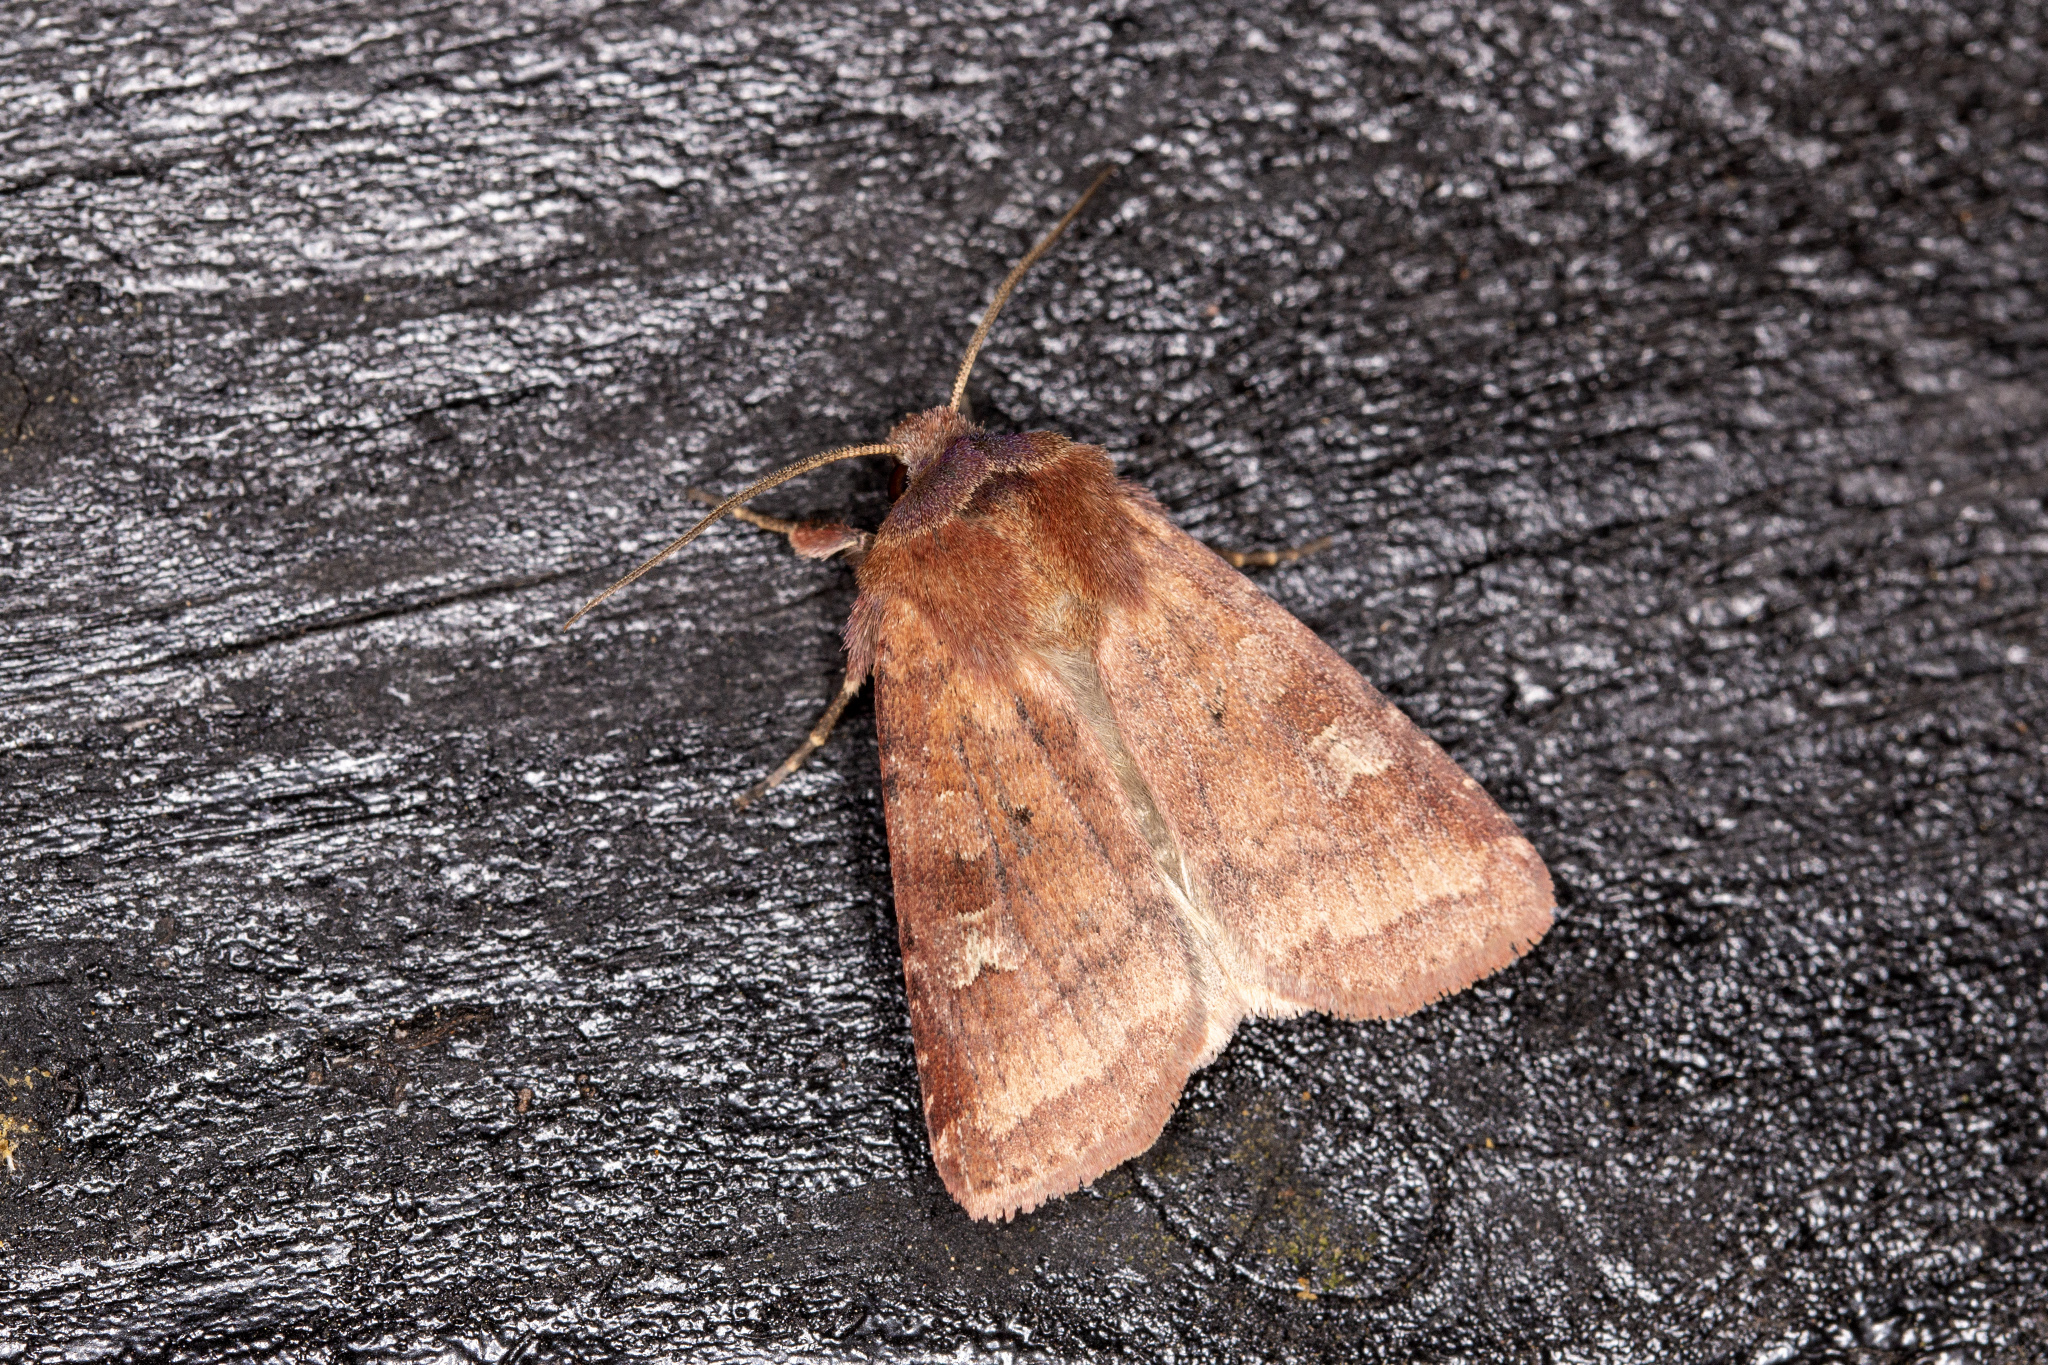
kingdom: Animalia
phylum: Arthropoda
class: Insecta
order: Lepidoptera
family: Noctuidae
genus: Diarsia
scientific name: Diarsia rubi
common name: Small square-spot
